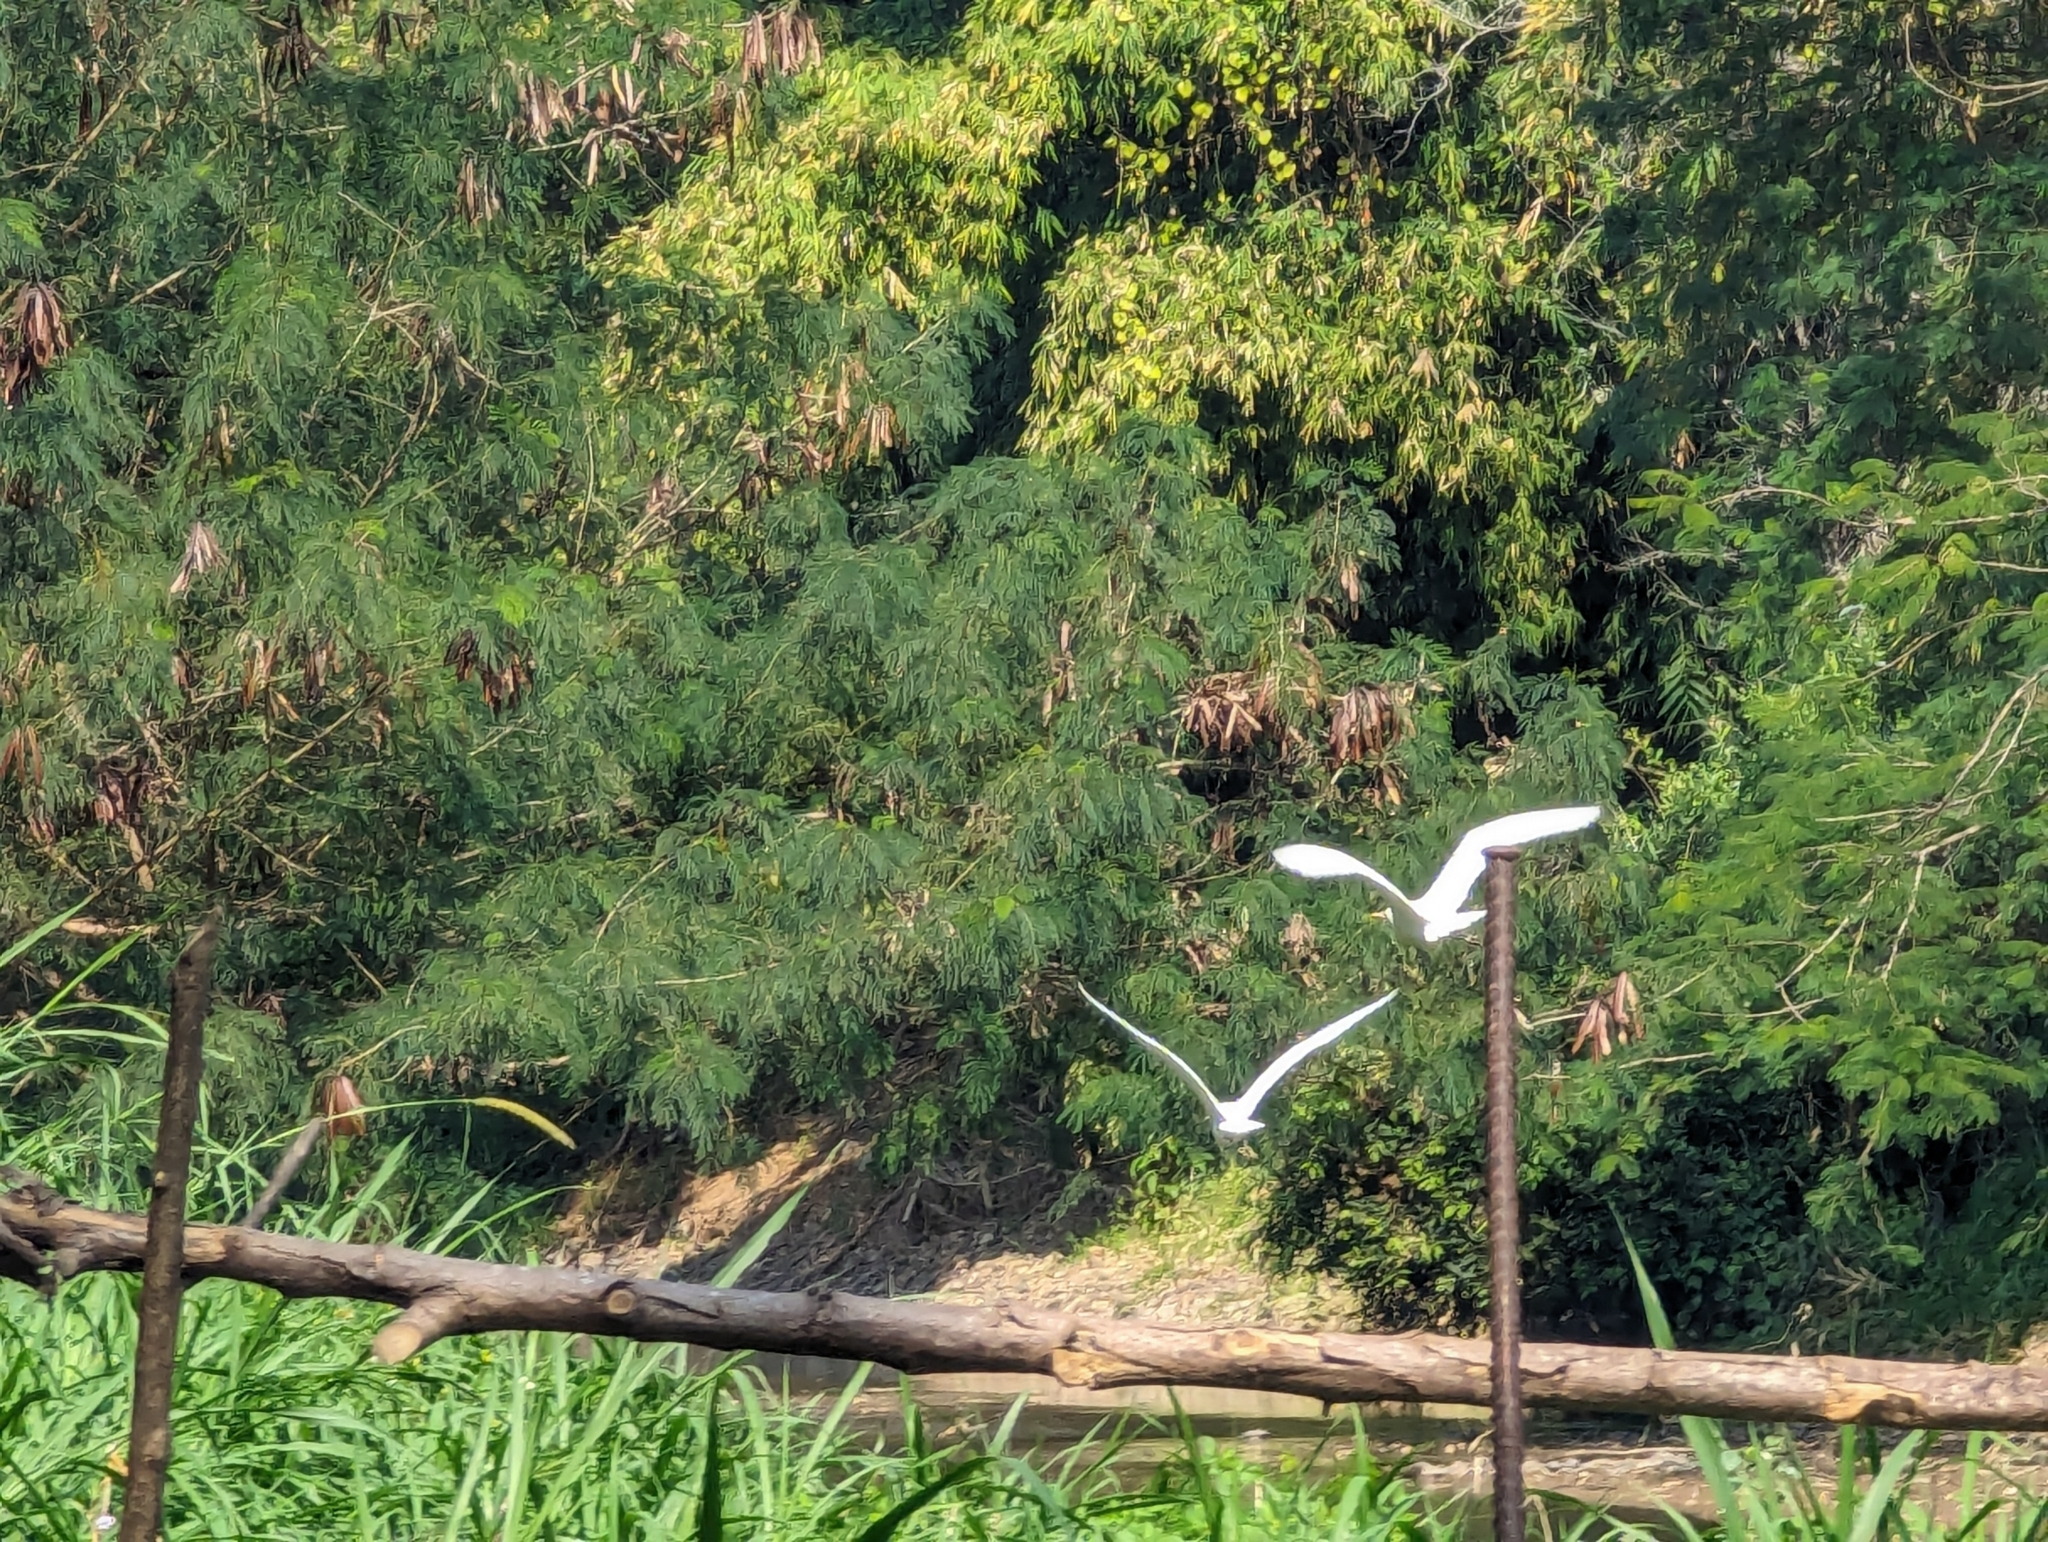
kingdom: Animalia
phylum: Chordata
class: Aves
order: Pelecaniformes
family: Ardeidae
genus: Bubulcus
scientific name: Bubulcus coromandus
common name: Eastern cattle egret
